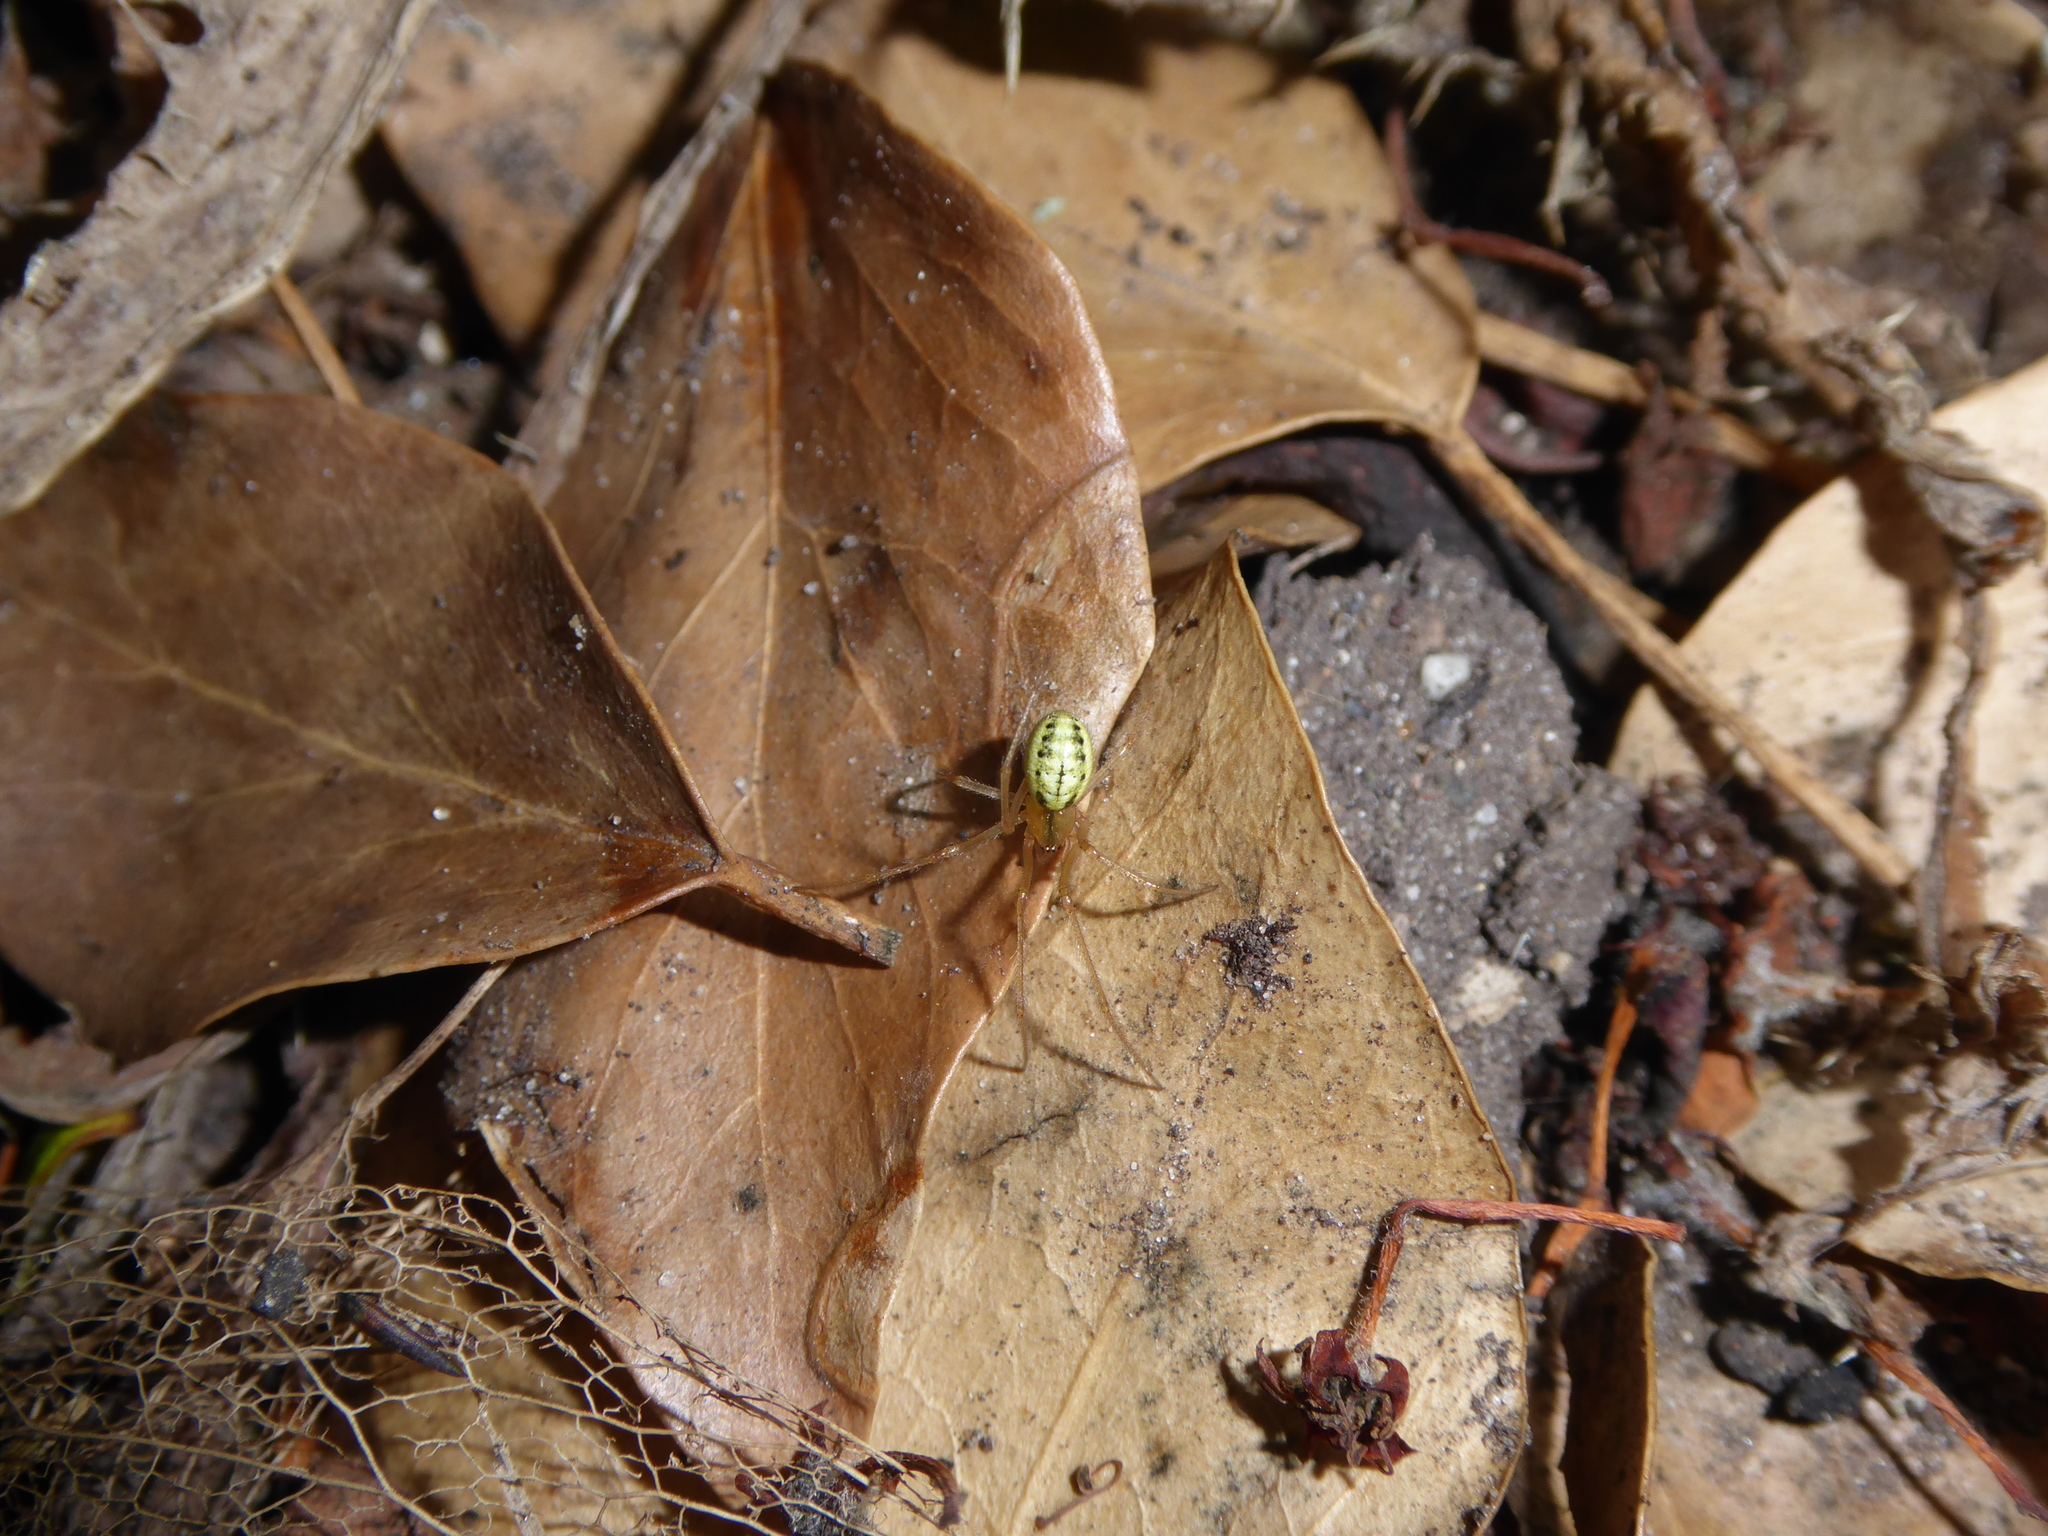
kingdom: Animalia
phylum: Arthropoda
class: Arachnida
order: Araneae
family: Theridiidae
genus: Enoplognatha
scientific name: Enoplognatha
